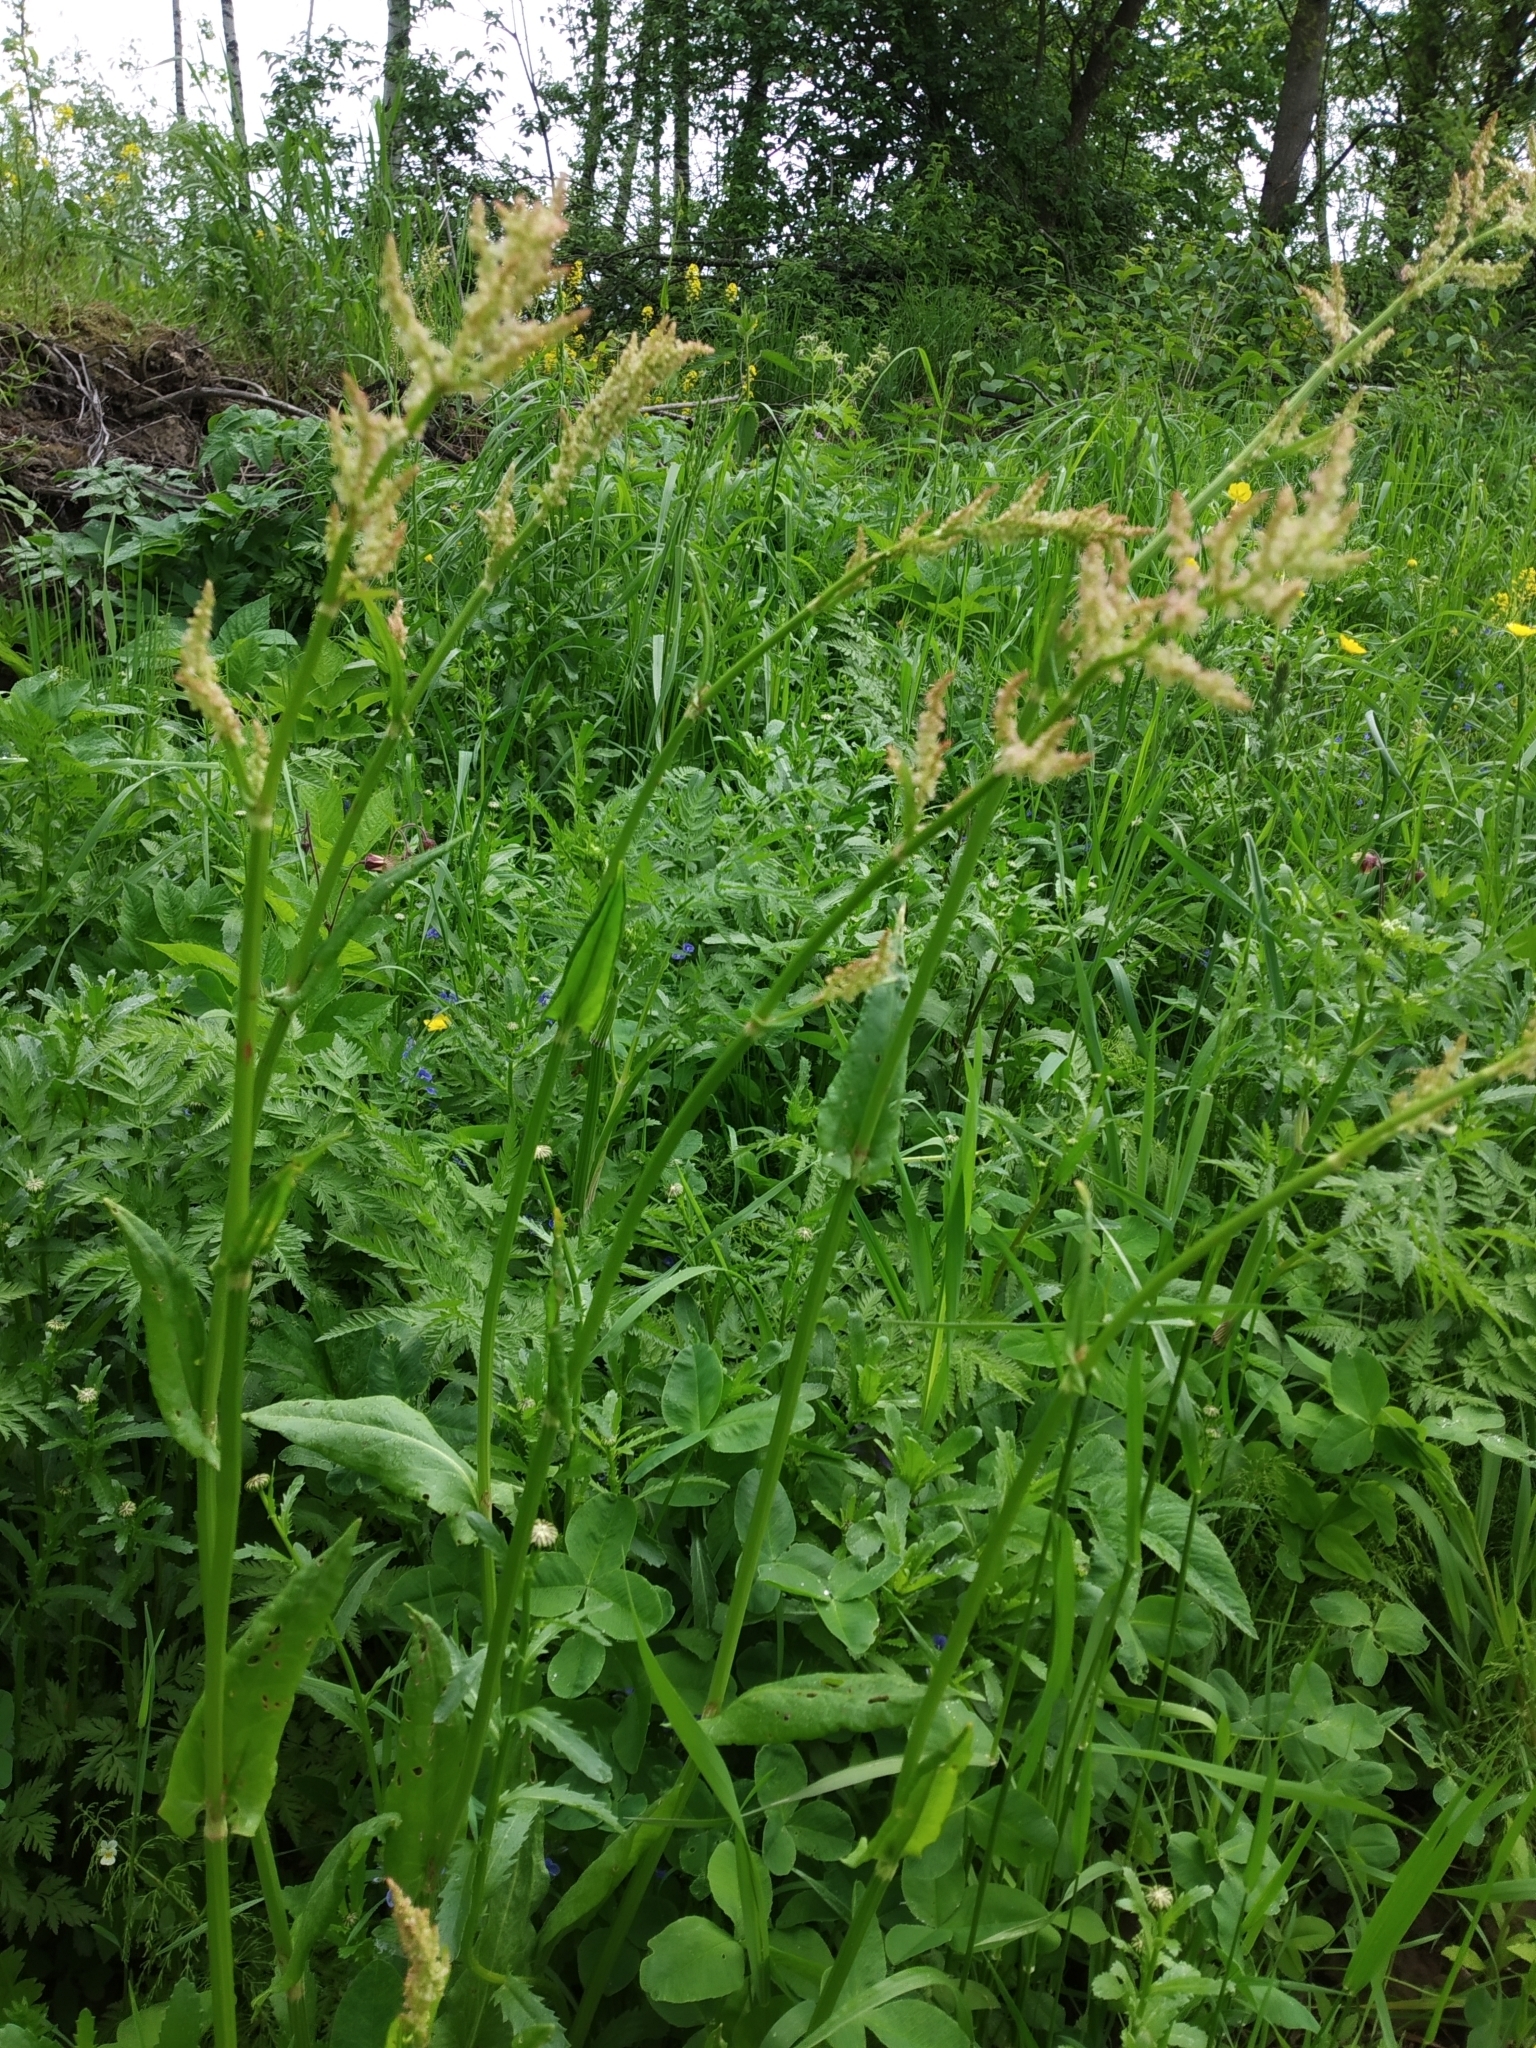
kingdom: Plantae
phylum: Tracheophyta
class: Magnoliopsida
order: Caryophyllales
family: Polygonaceae
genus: Rumex
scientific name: Rumex acetosa
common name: Garden sorrel
